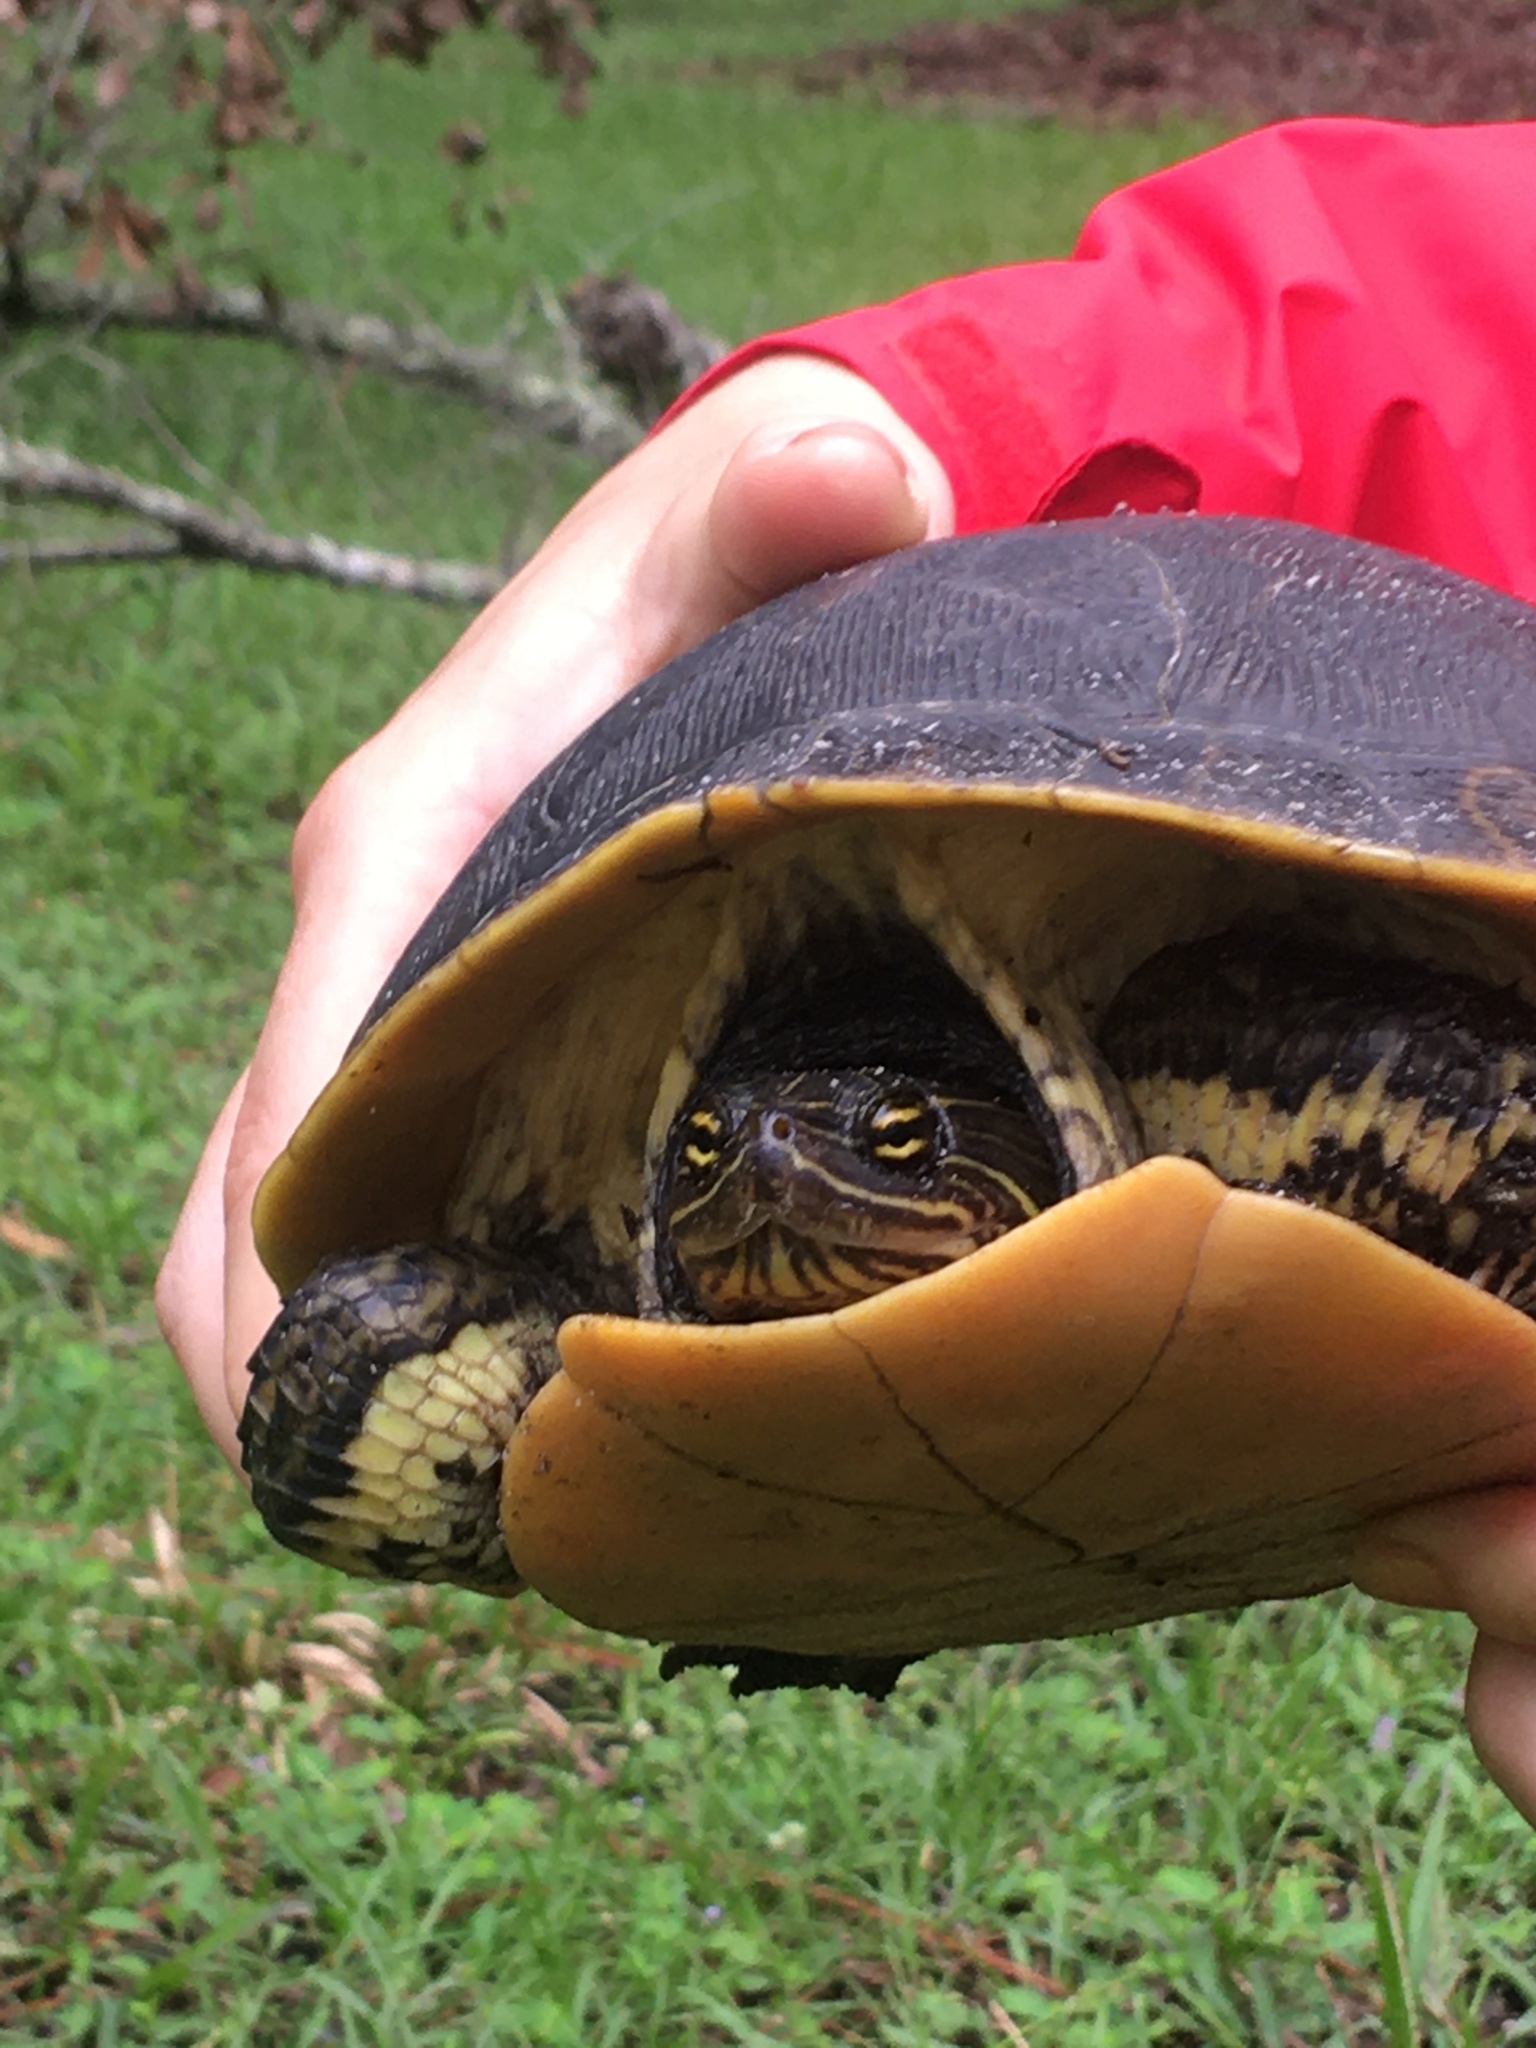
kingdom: Animalia
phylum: Chordata
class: Testudines
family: Emydidae
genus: Deirochelys
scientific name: Deirochelys reticularia
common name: Chicken turtle
